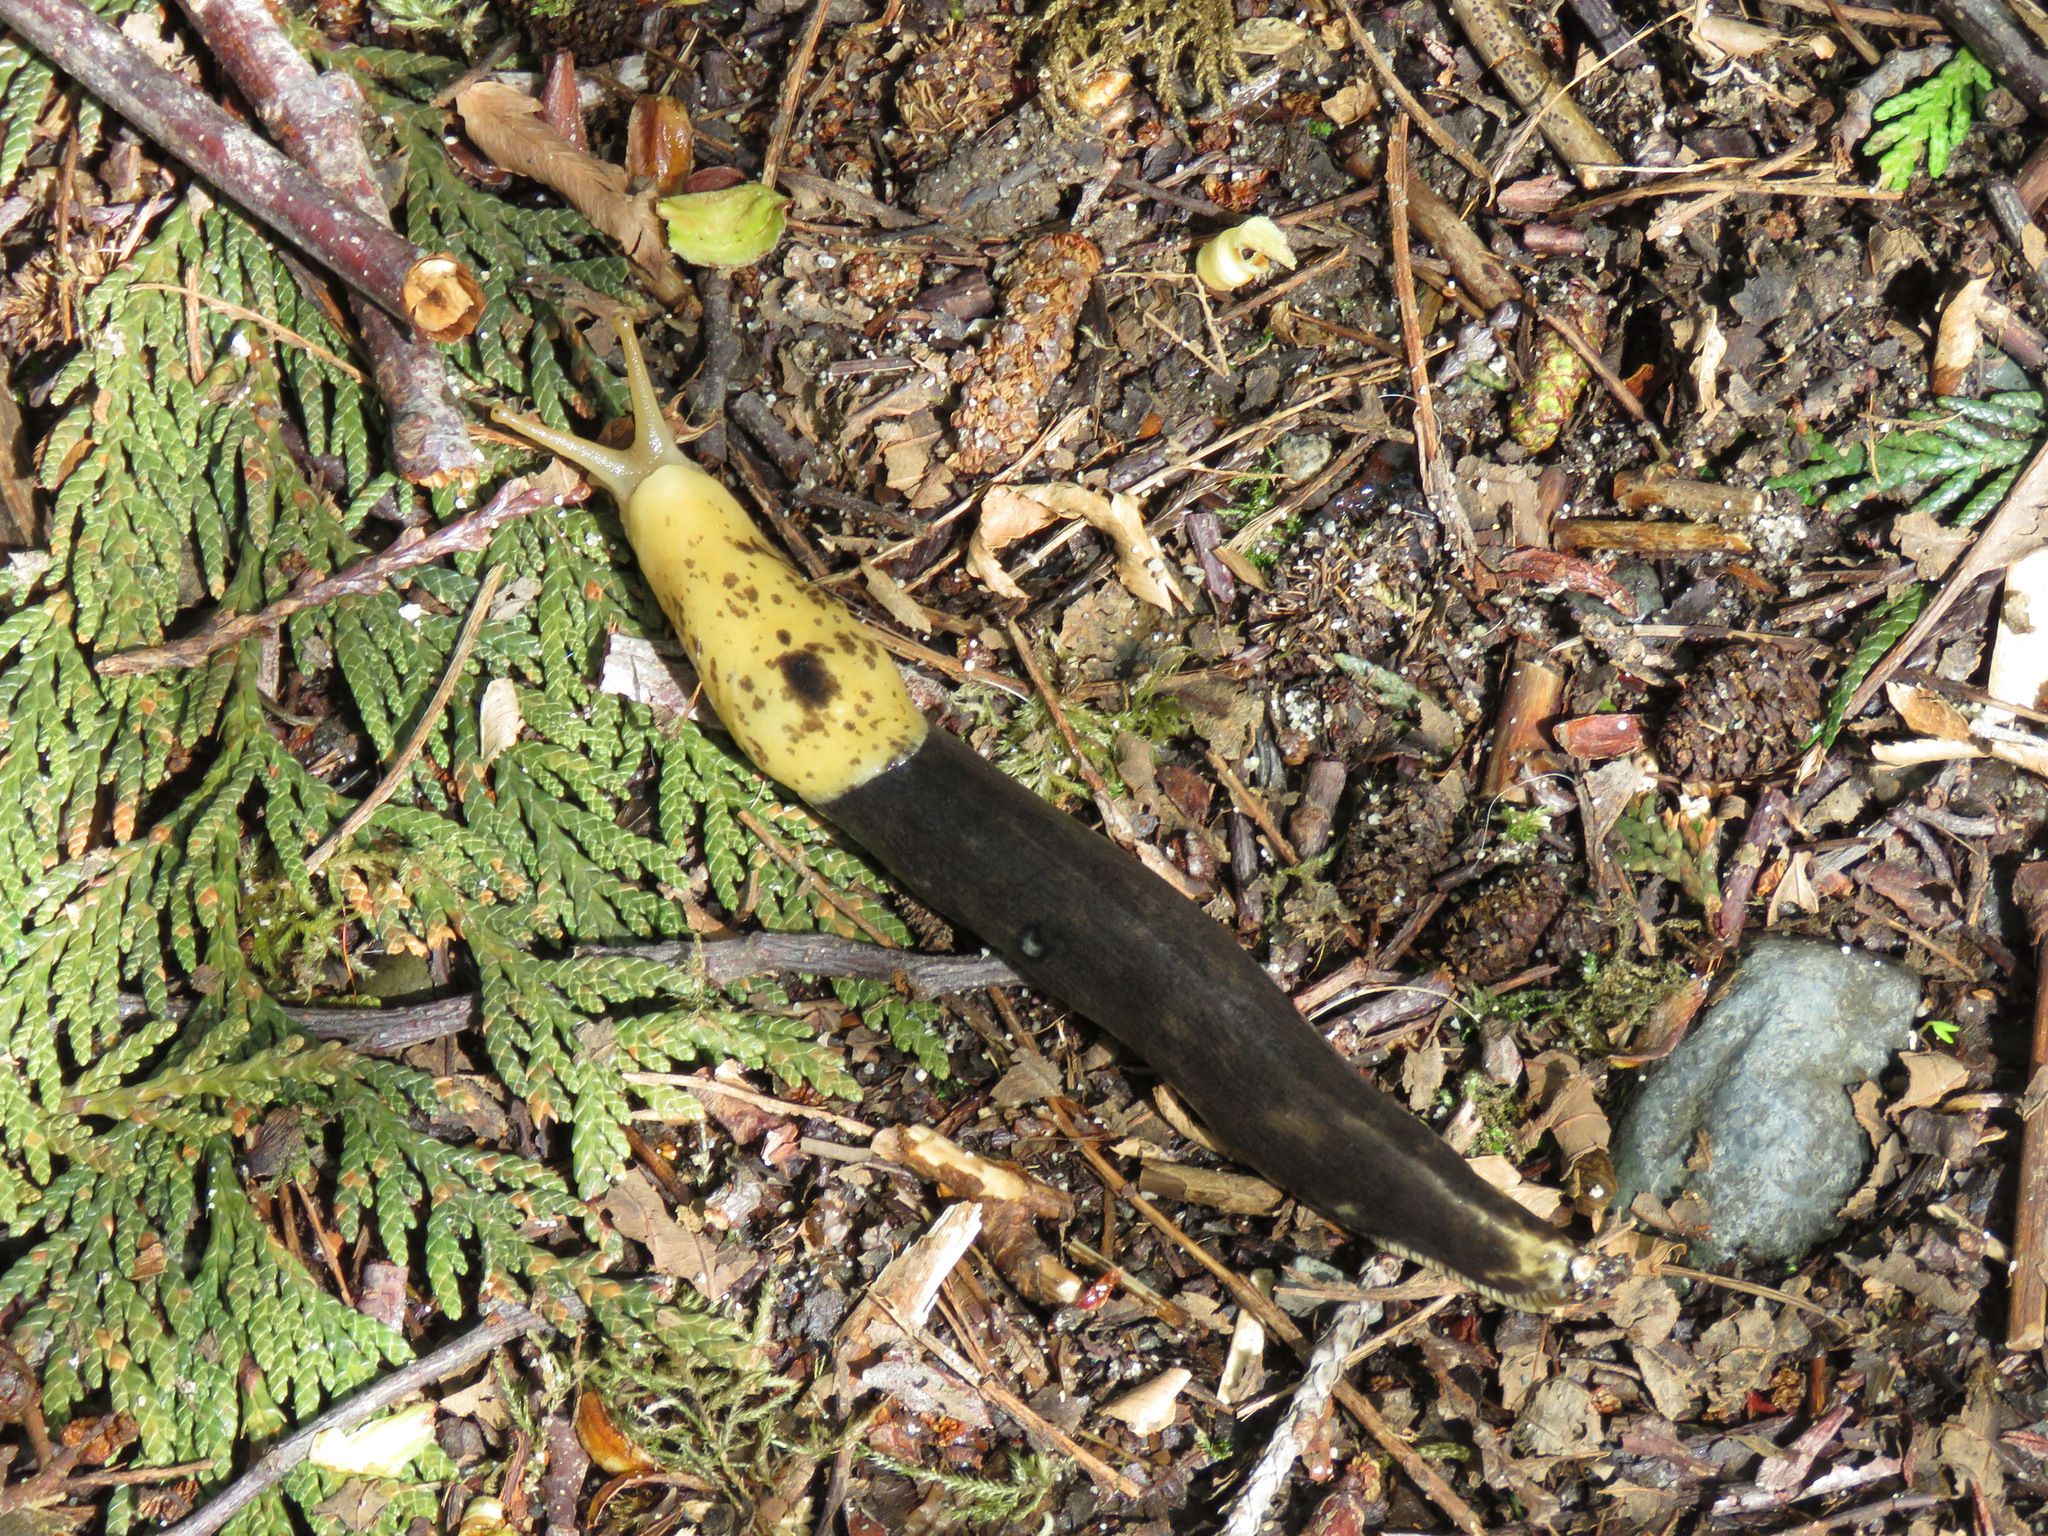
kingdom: Animalia
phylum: Mollusca
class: Gastropoda
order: Stylommatophora
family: Ariolimacidae
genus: Ariolimax
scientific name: Ariolimax columbianus
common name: Pacific banana slug
